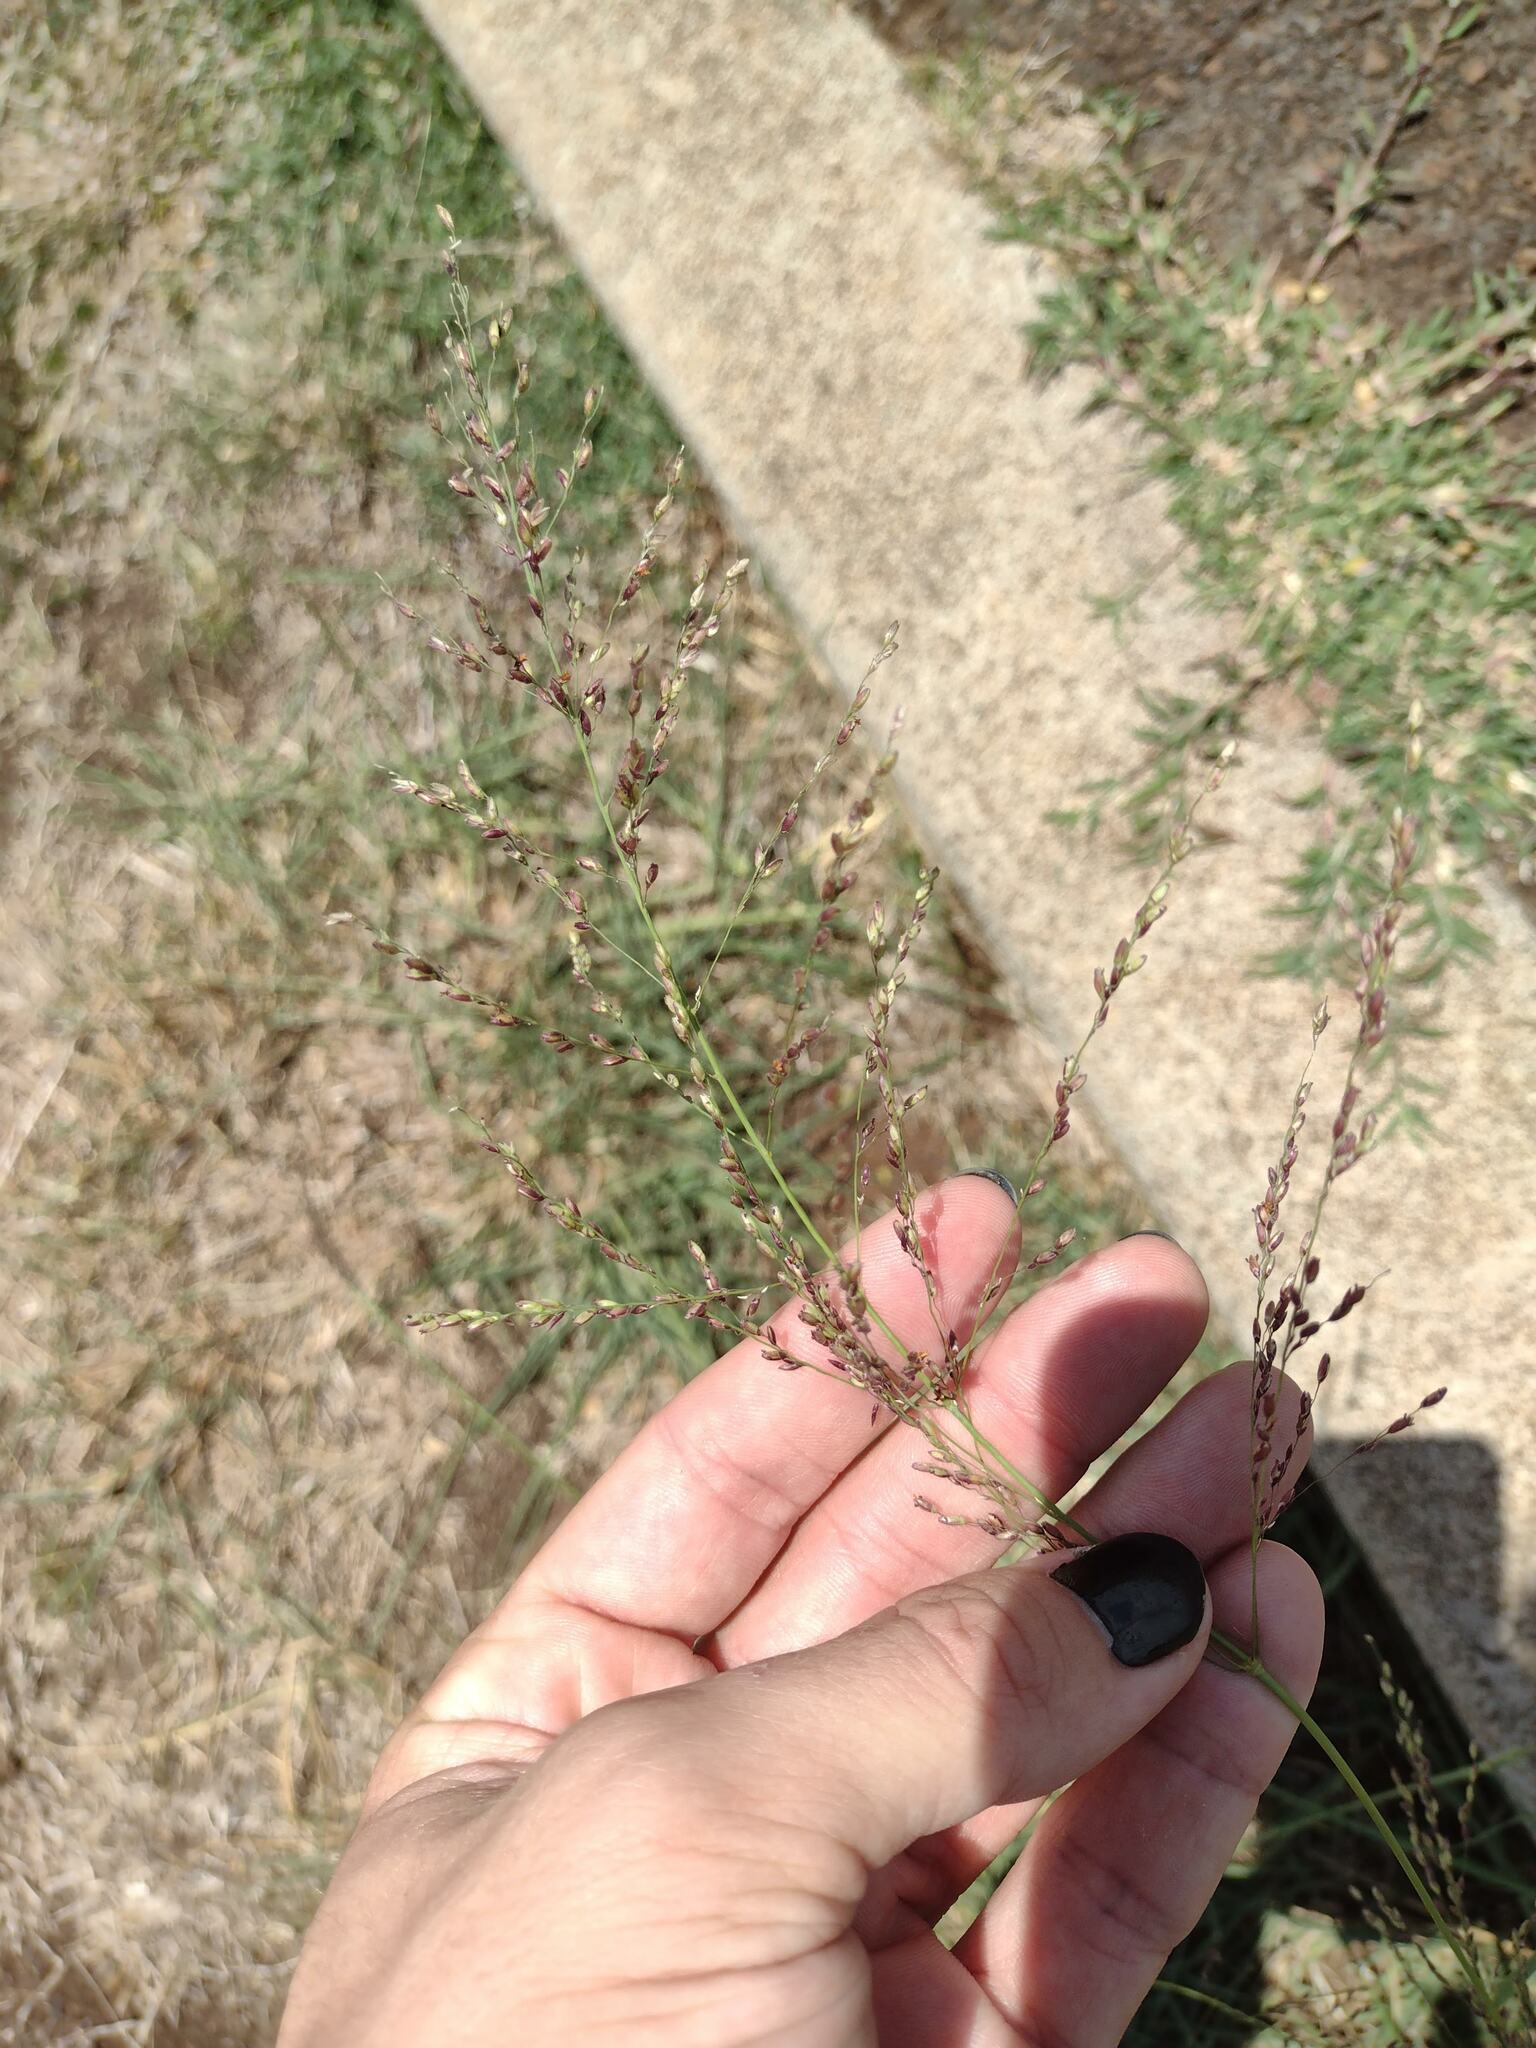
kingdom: Plantae
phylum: Tracheophyta
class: Liliopsida
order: Poales
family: Poaceae
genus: Megathyrsus
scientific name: Megathyrsus maximus
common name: Guineagrass
